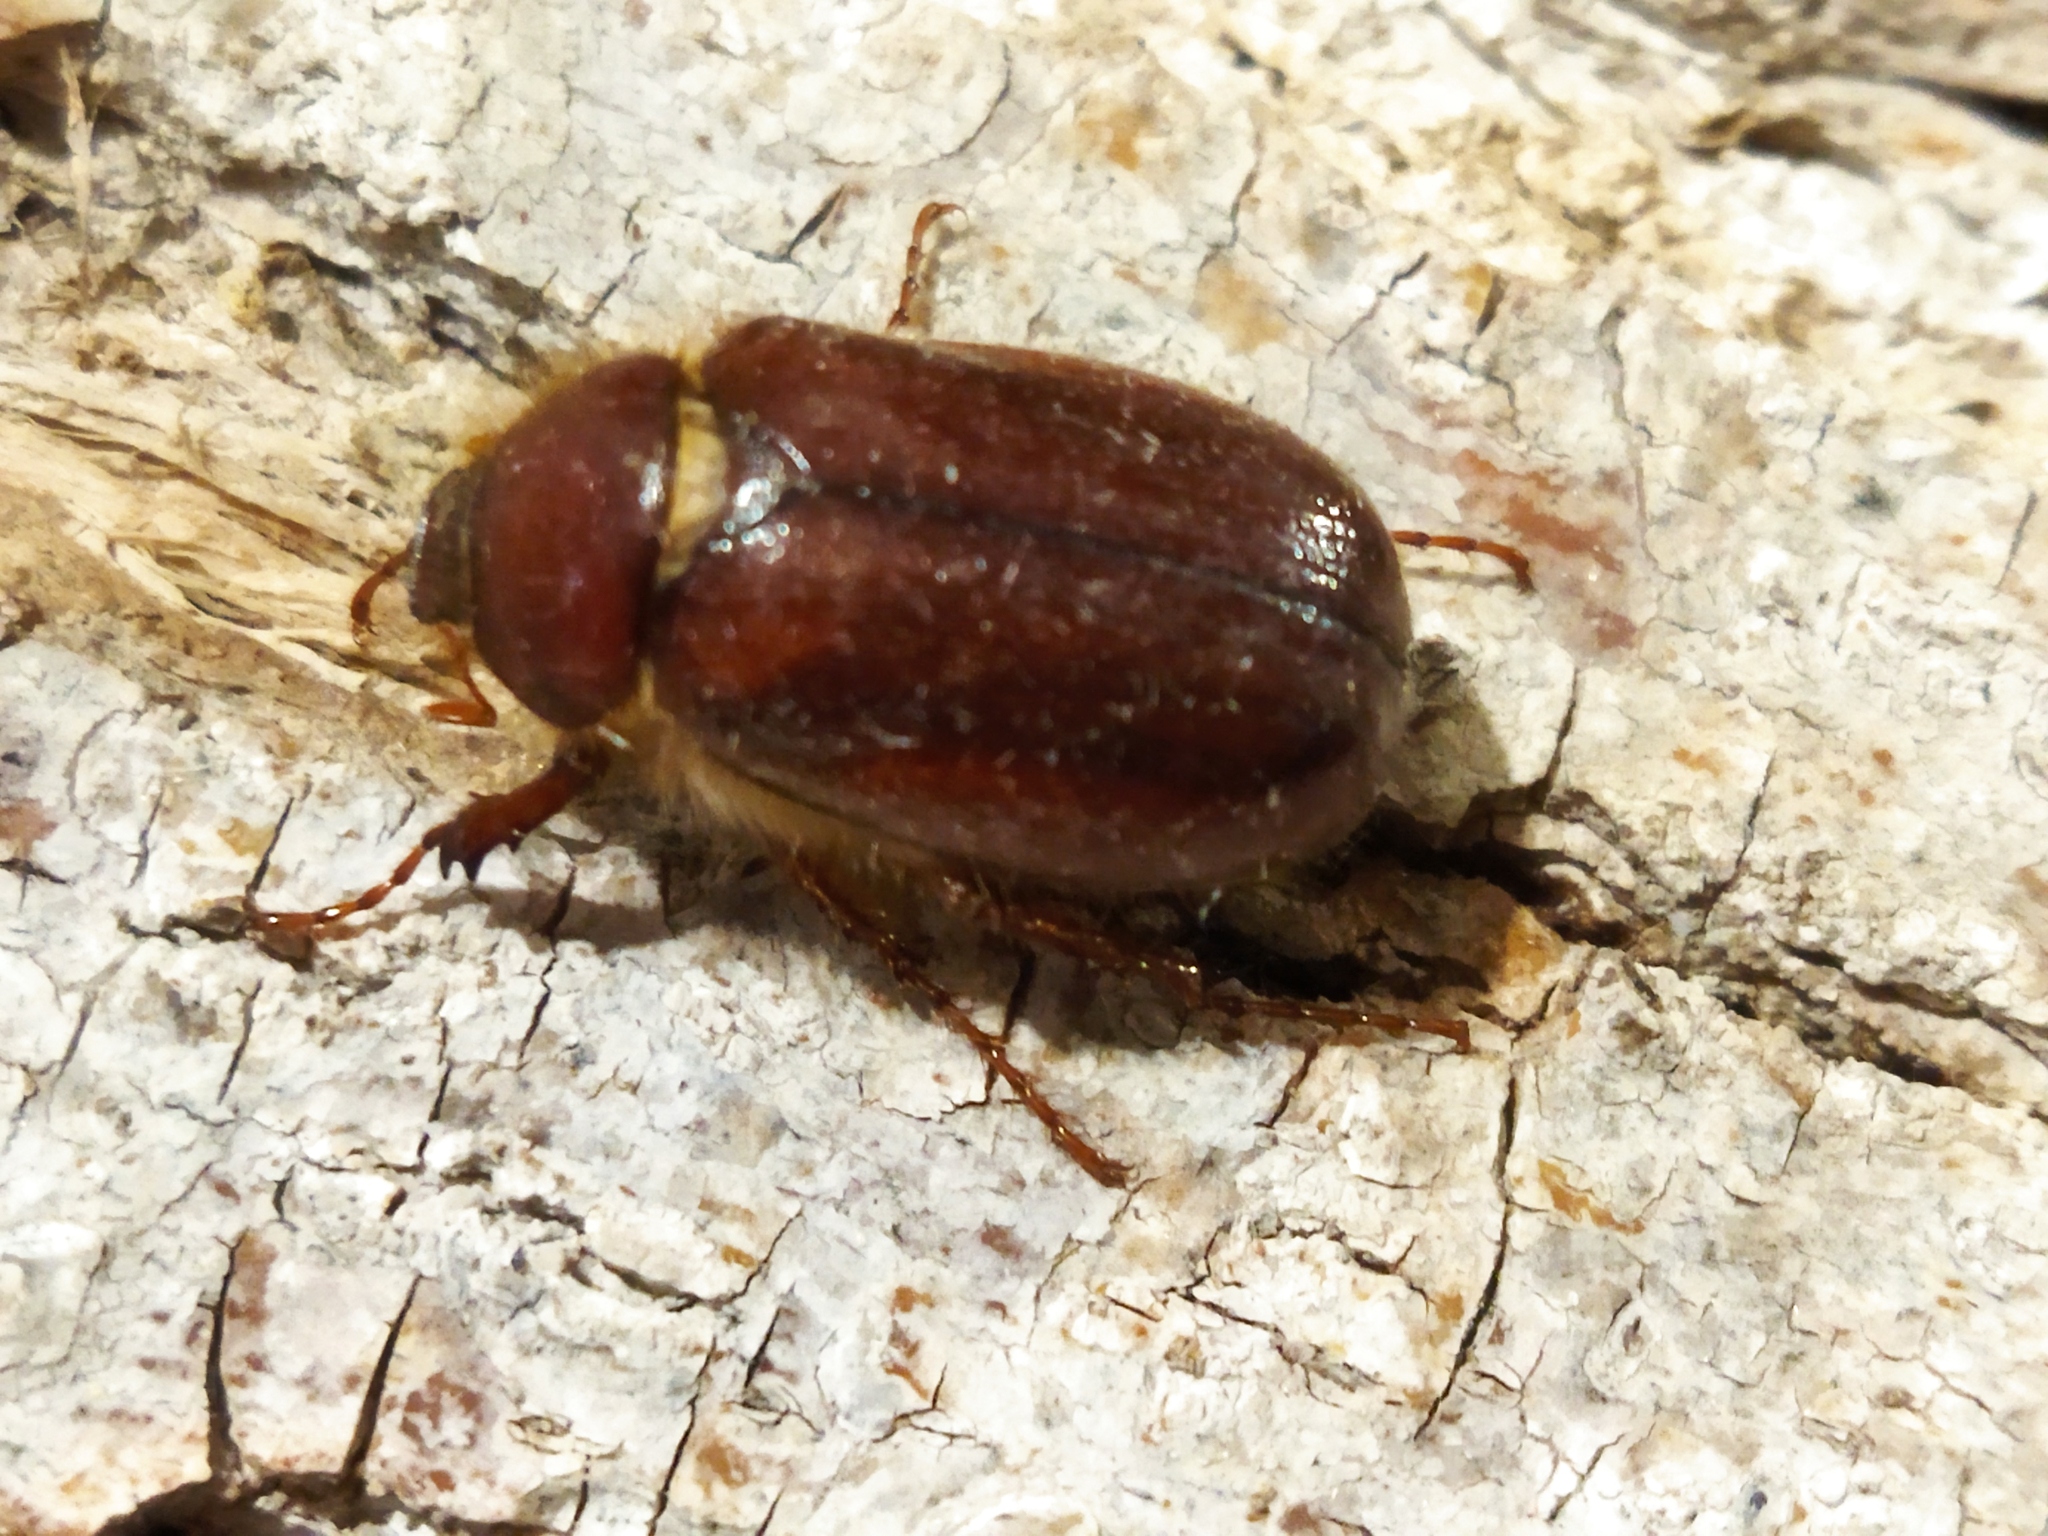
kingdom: Animalia
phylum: Arthropoda
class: Insecta
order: Coleoptera
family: Scarabaeidae
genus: Holochelus
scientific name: Holochelus aequinoctialis
